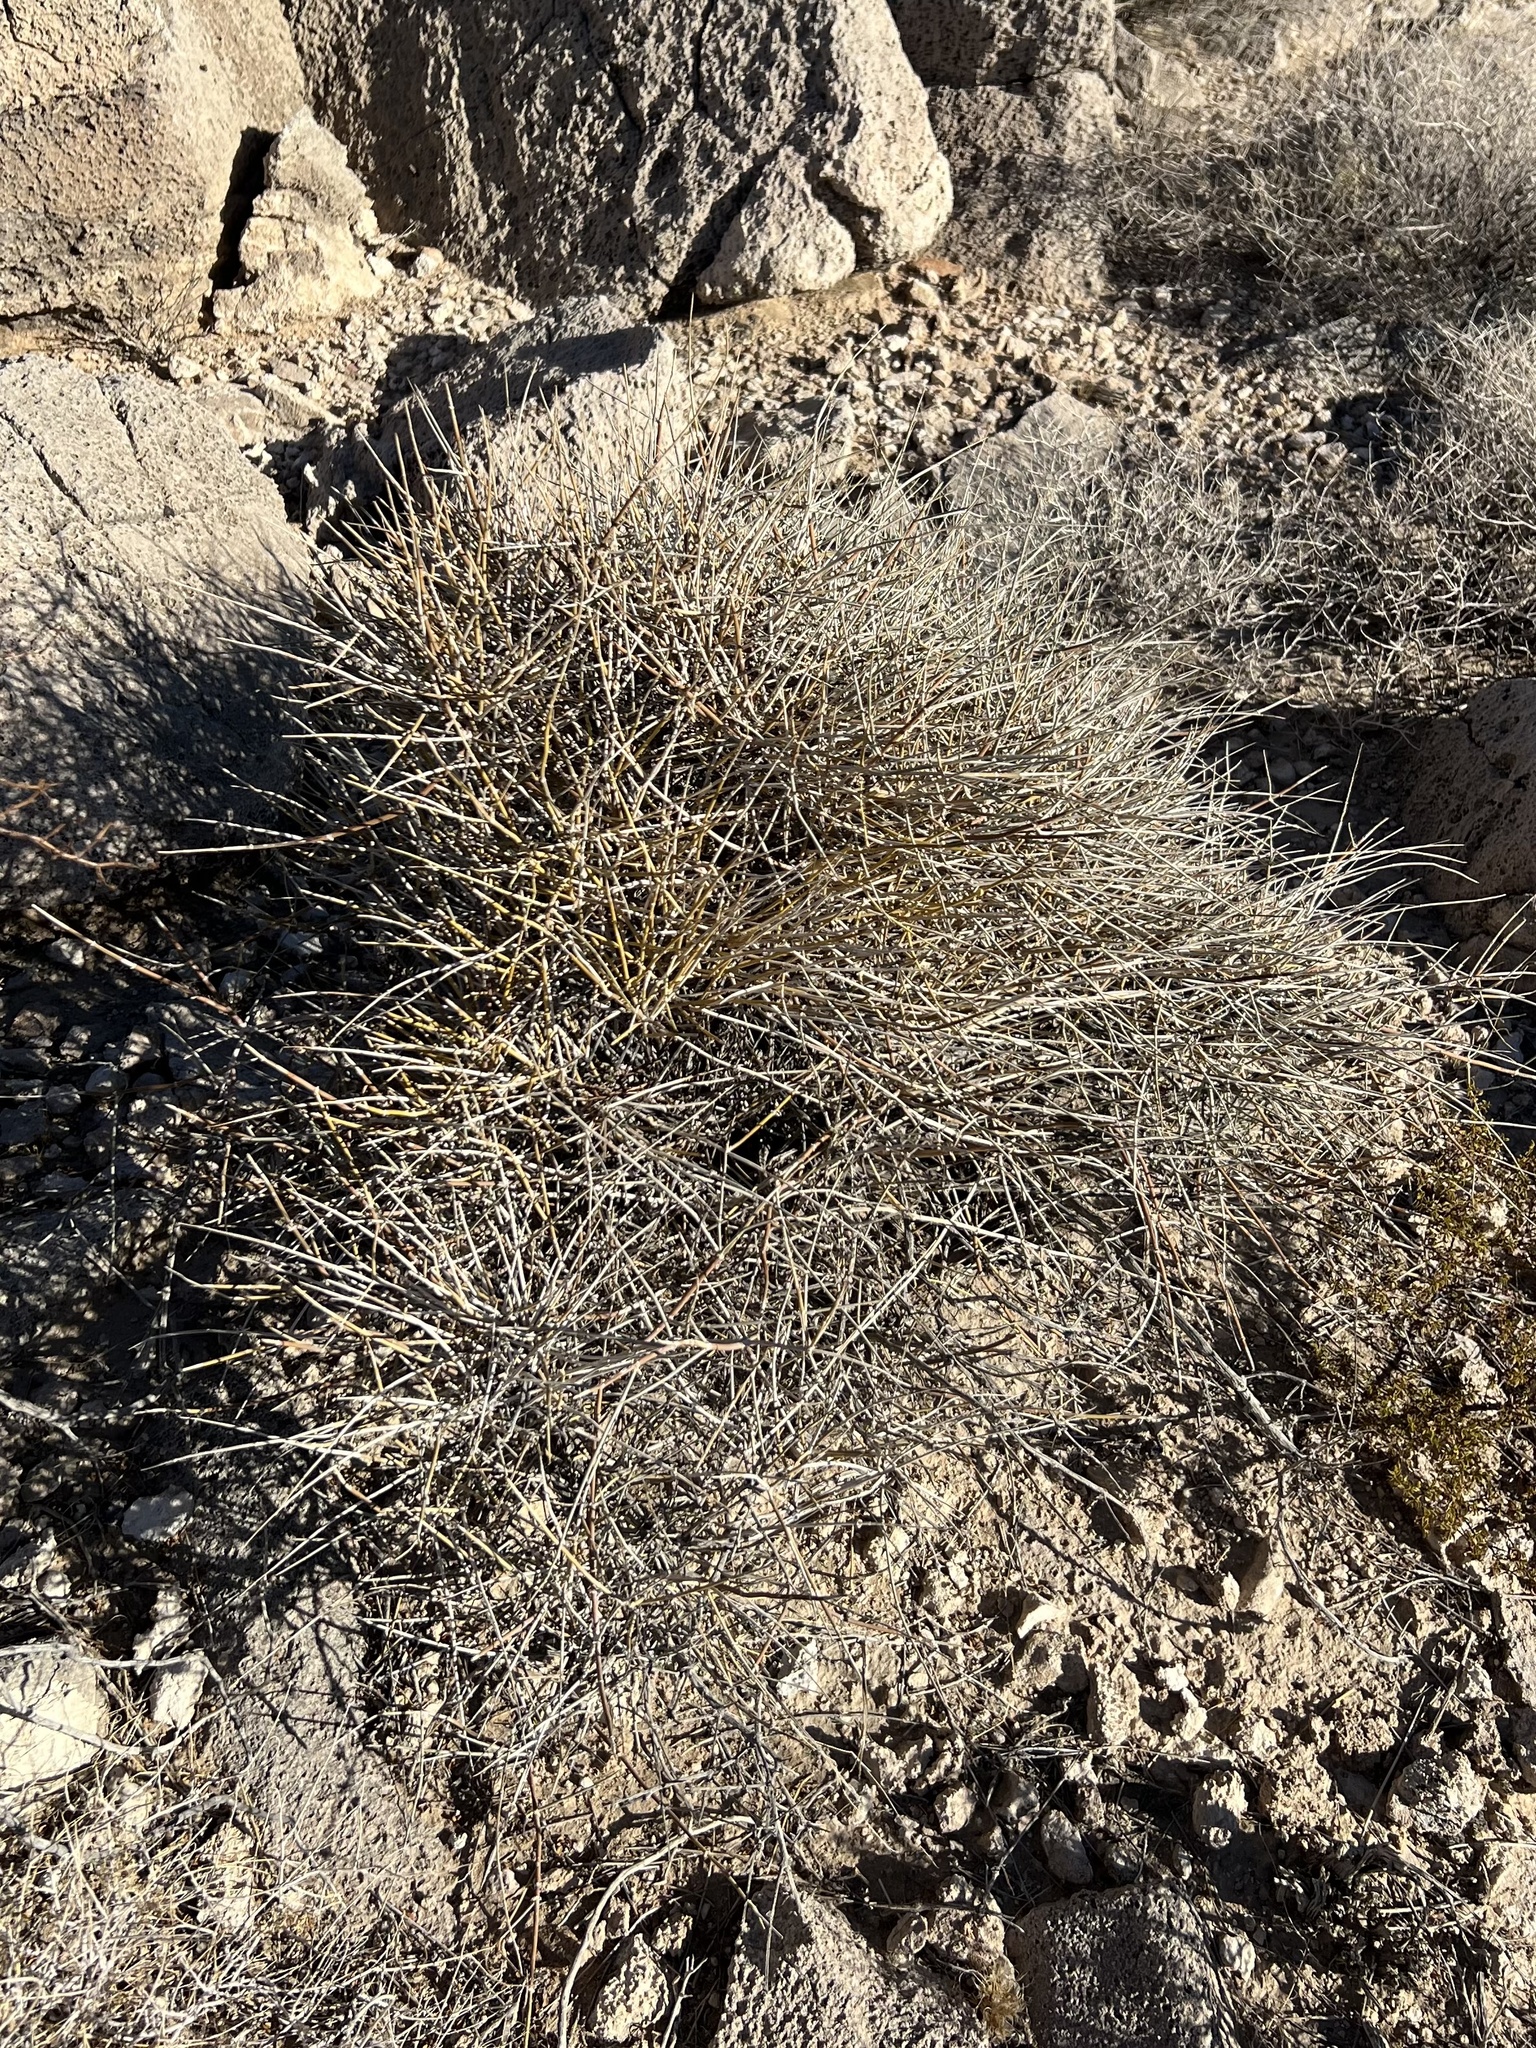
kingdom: Plantae
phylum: Tracheophyta
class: Gnetopsida
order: Ephedrales
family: Ephedraceae
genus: Ephedra
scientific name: Ephedra nevadensis
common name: Gray ephedra
